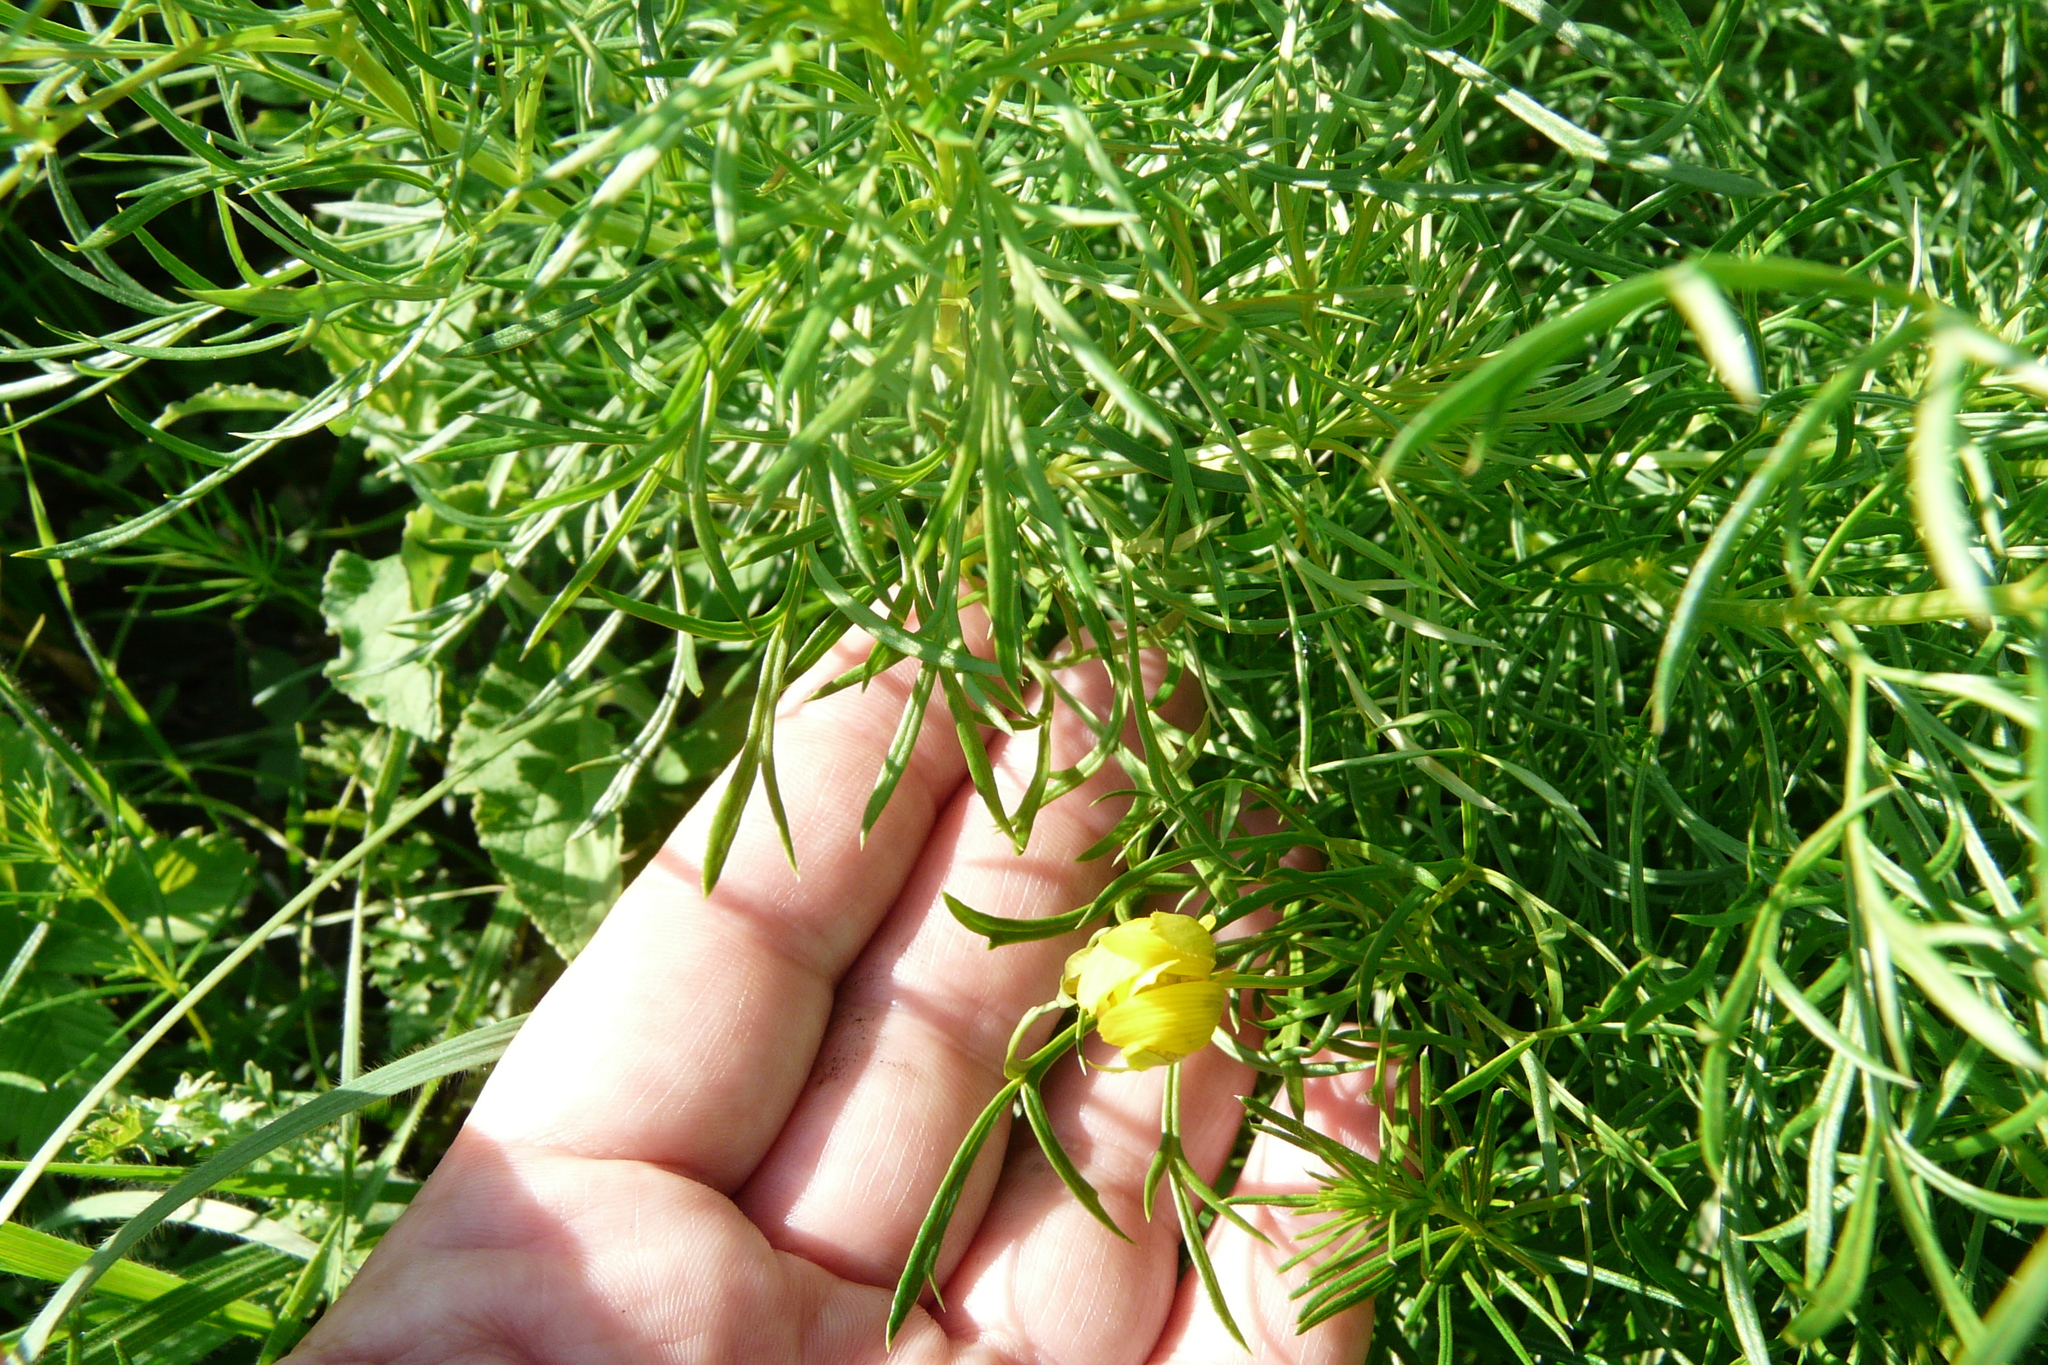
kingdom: Plantae
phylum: Tracheophyta
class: Magnoliopsida
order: Ranunculales
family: Ranunculaceae
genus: Adonis
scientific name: Adonis vernalis
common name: Yellow pheasants-eye
